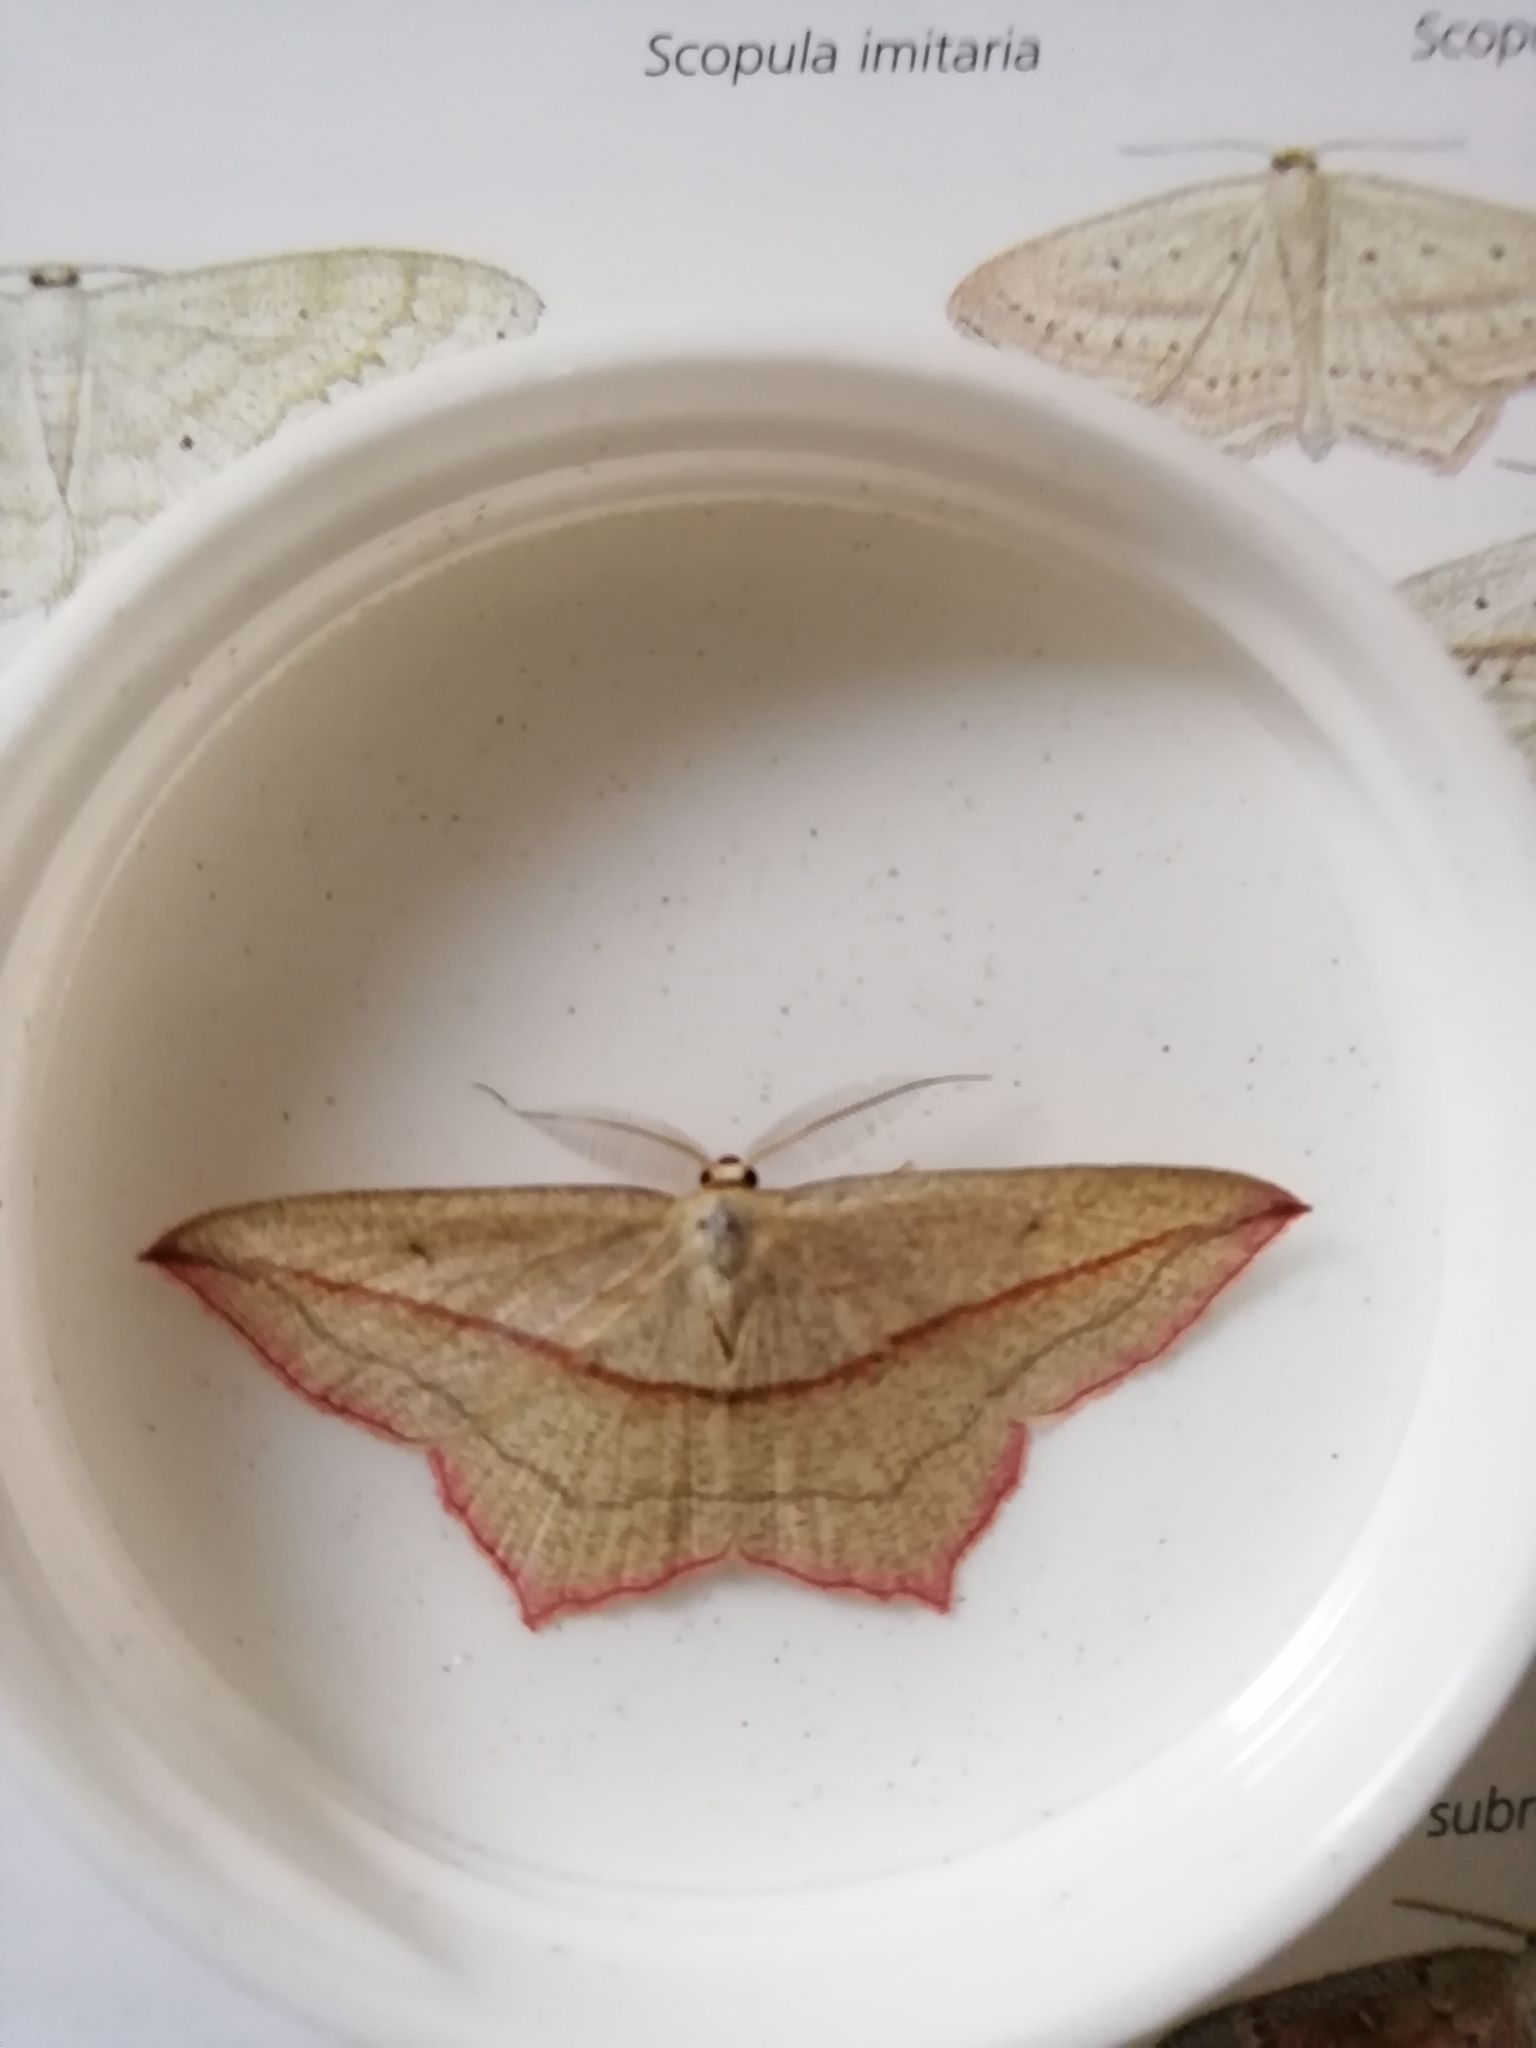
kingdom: Animalia
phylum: Arthropoda
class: Insecta
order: Lepidoptera
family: Geometridae
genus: Timandra
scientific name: Timandra comae
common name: Blood-vein
